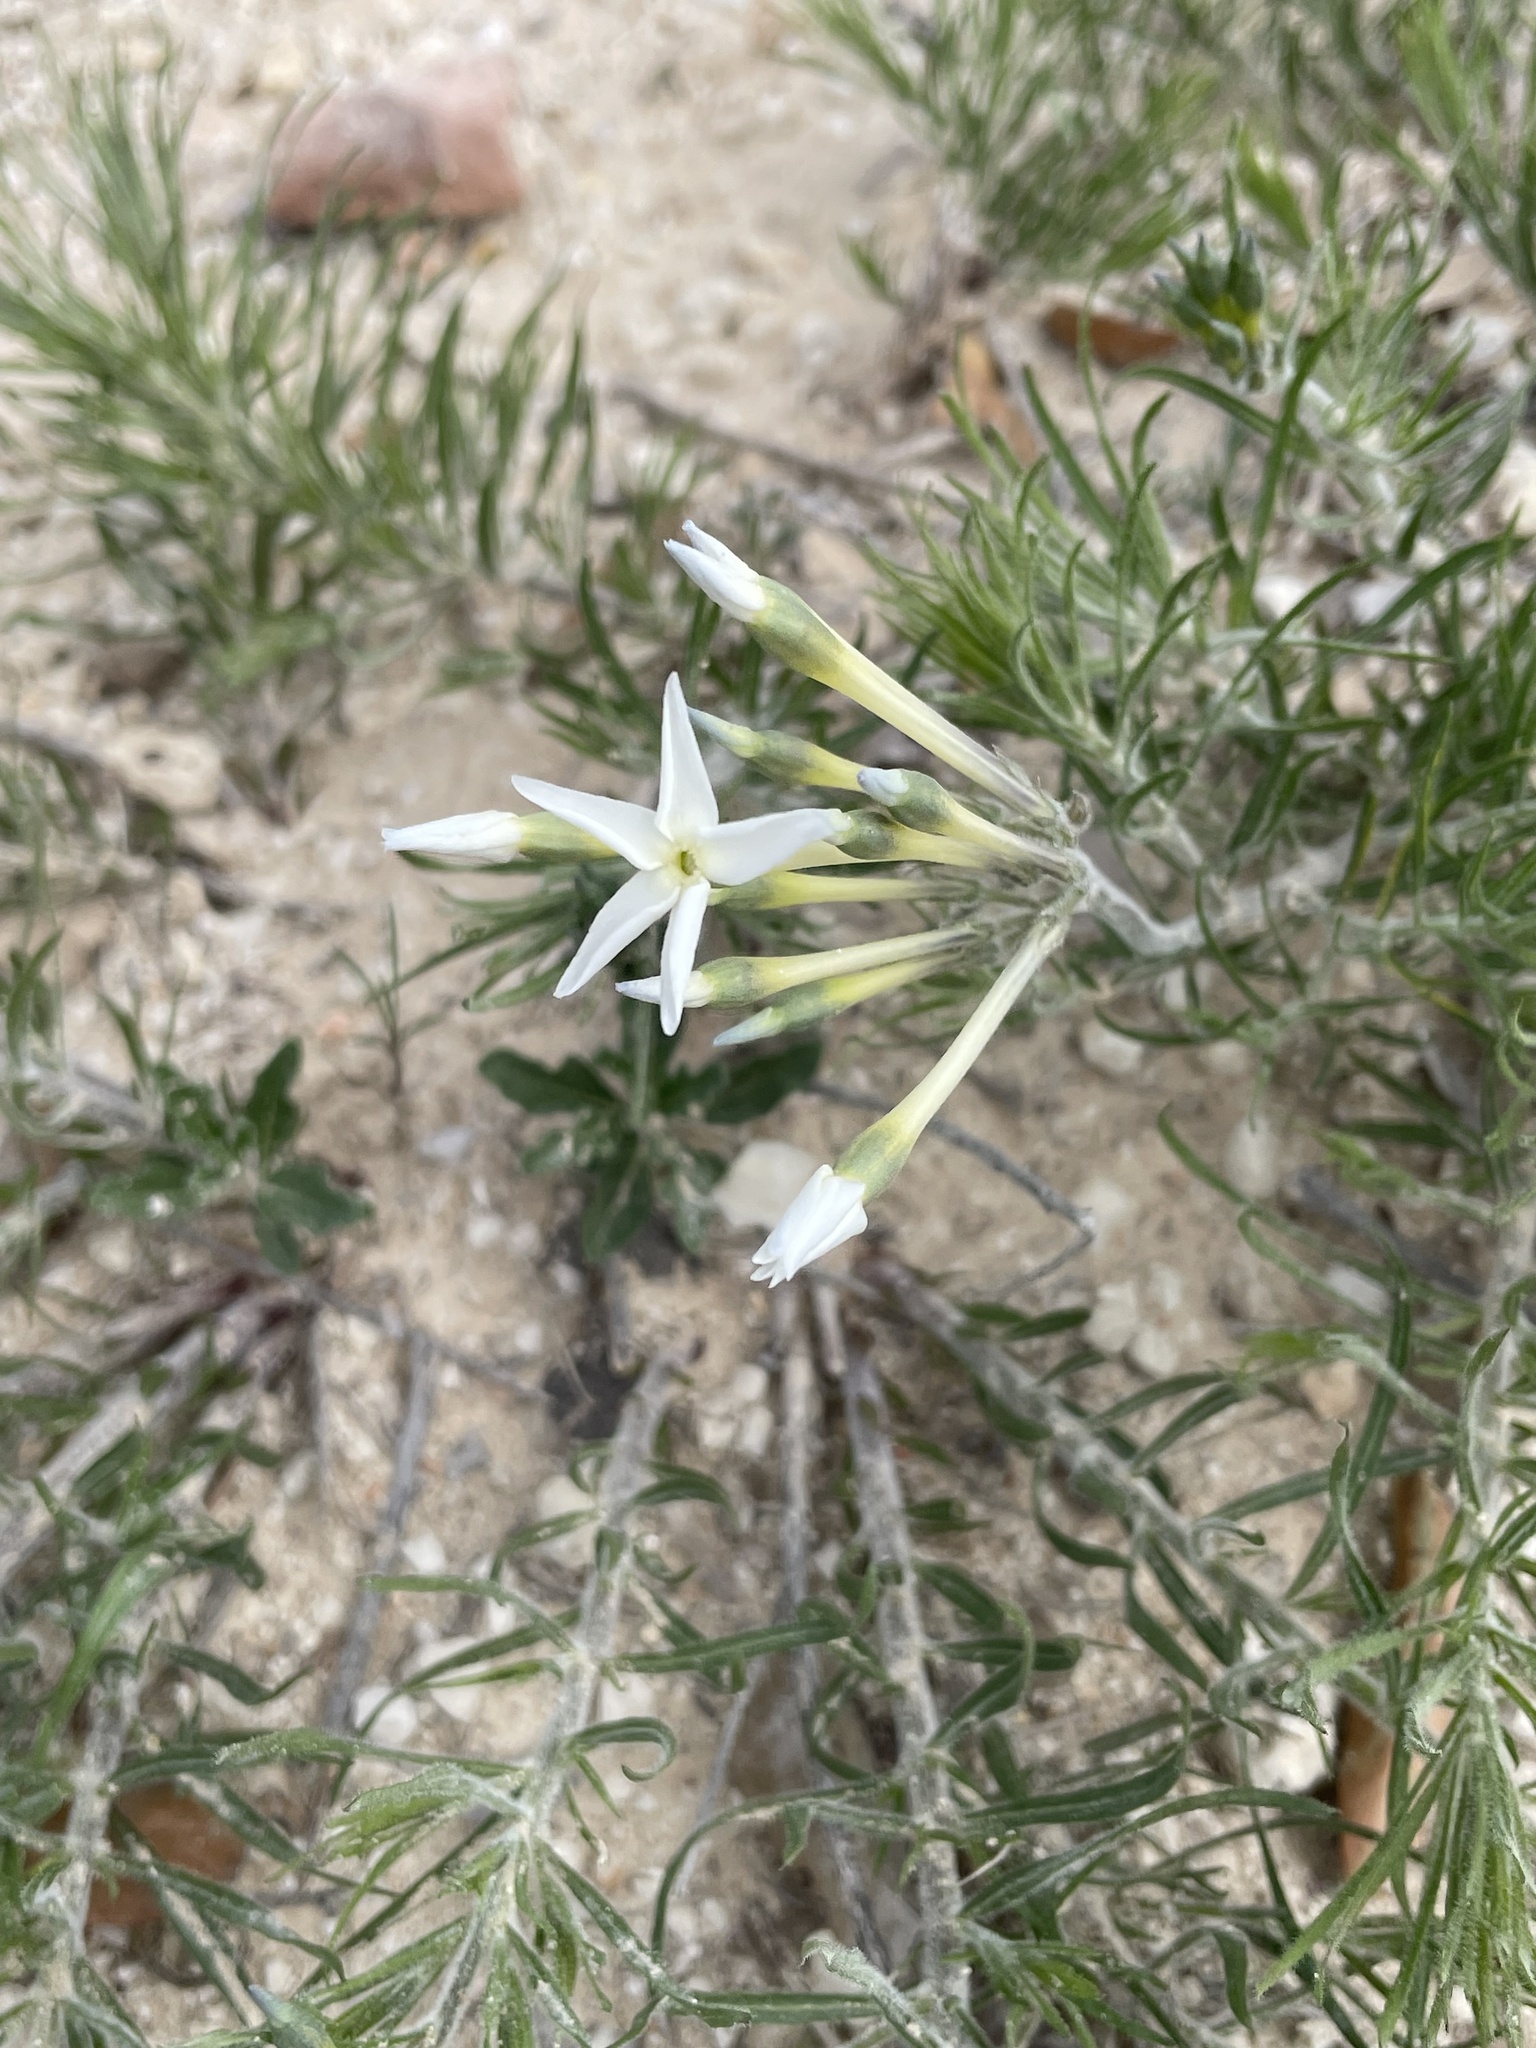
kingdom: Plantae
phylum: Tracheophyta
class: Magnoliopsida
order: Gentianales
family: Apocynaceae
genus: Amsonia
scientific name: Amsonia longiflora
